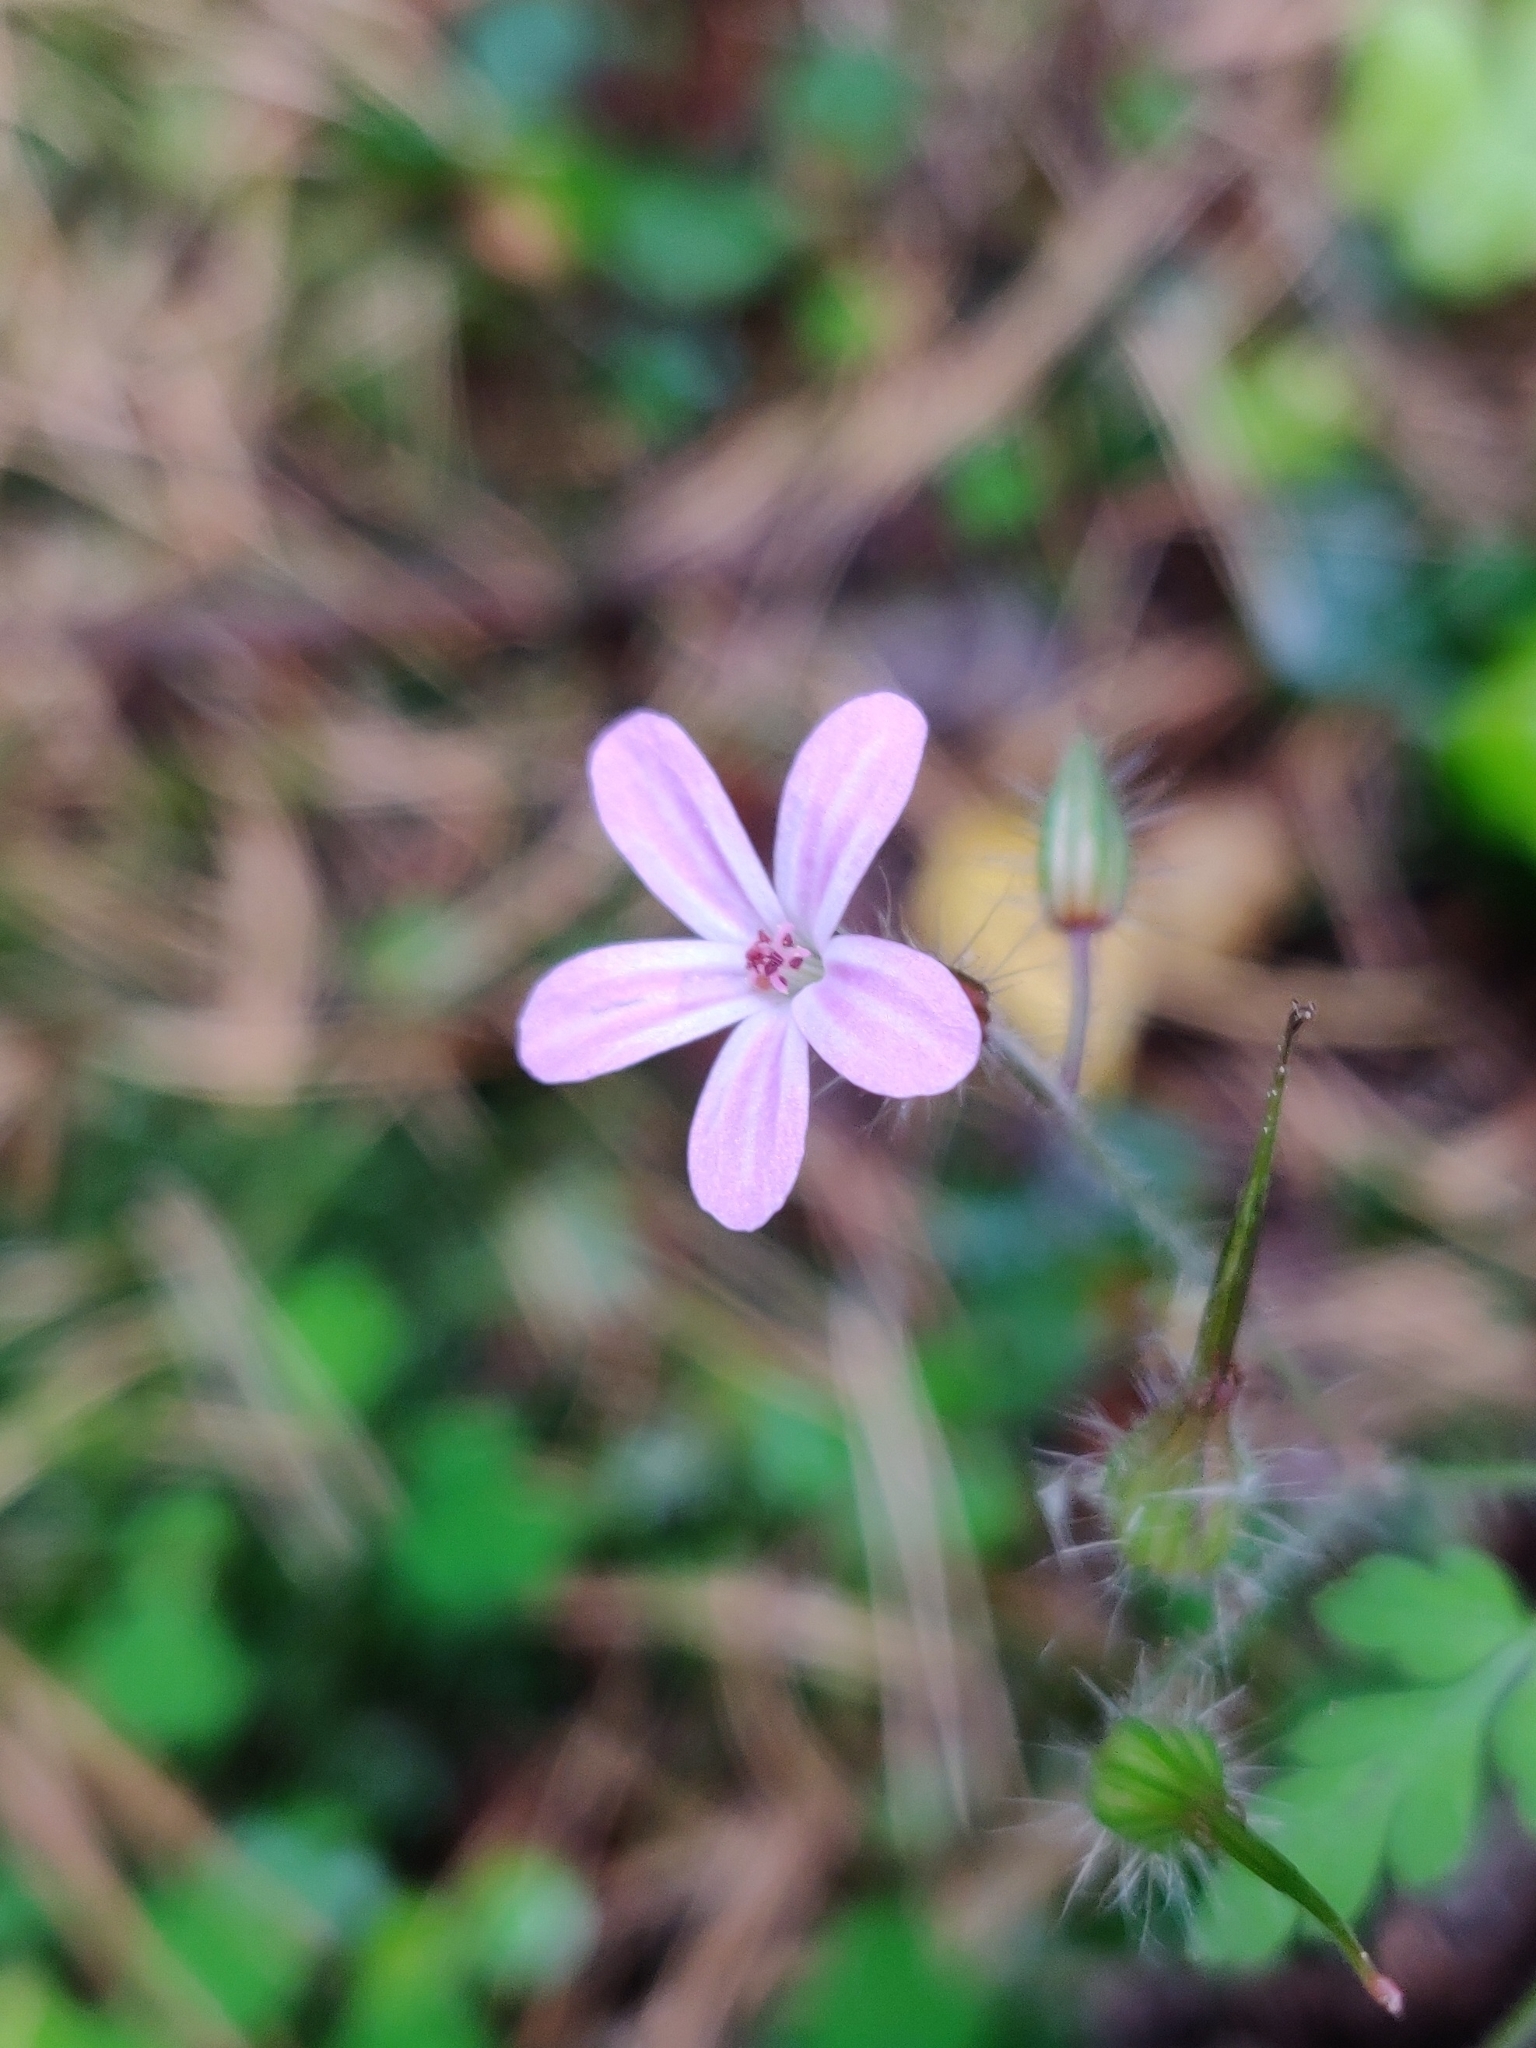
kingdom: Plantae
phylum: Tracheophyta
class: Magnoliopsida
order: Geraniales
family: Geraniaceae
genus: Geranium
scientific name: Geranium robertianum
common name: Herb-robert
